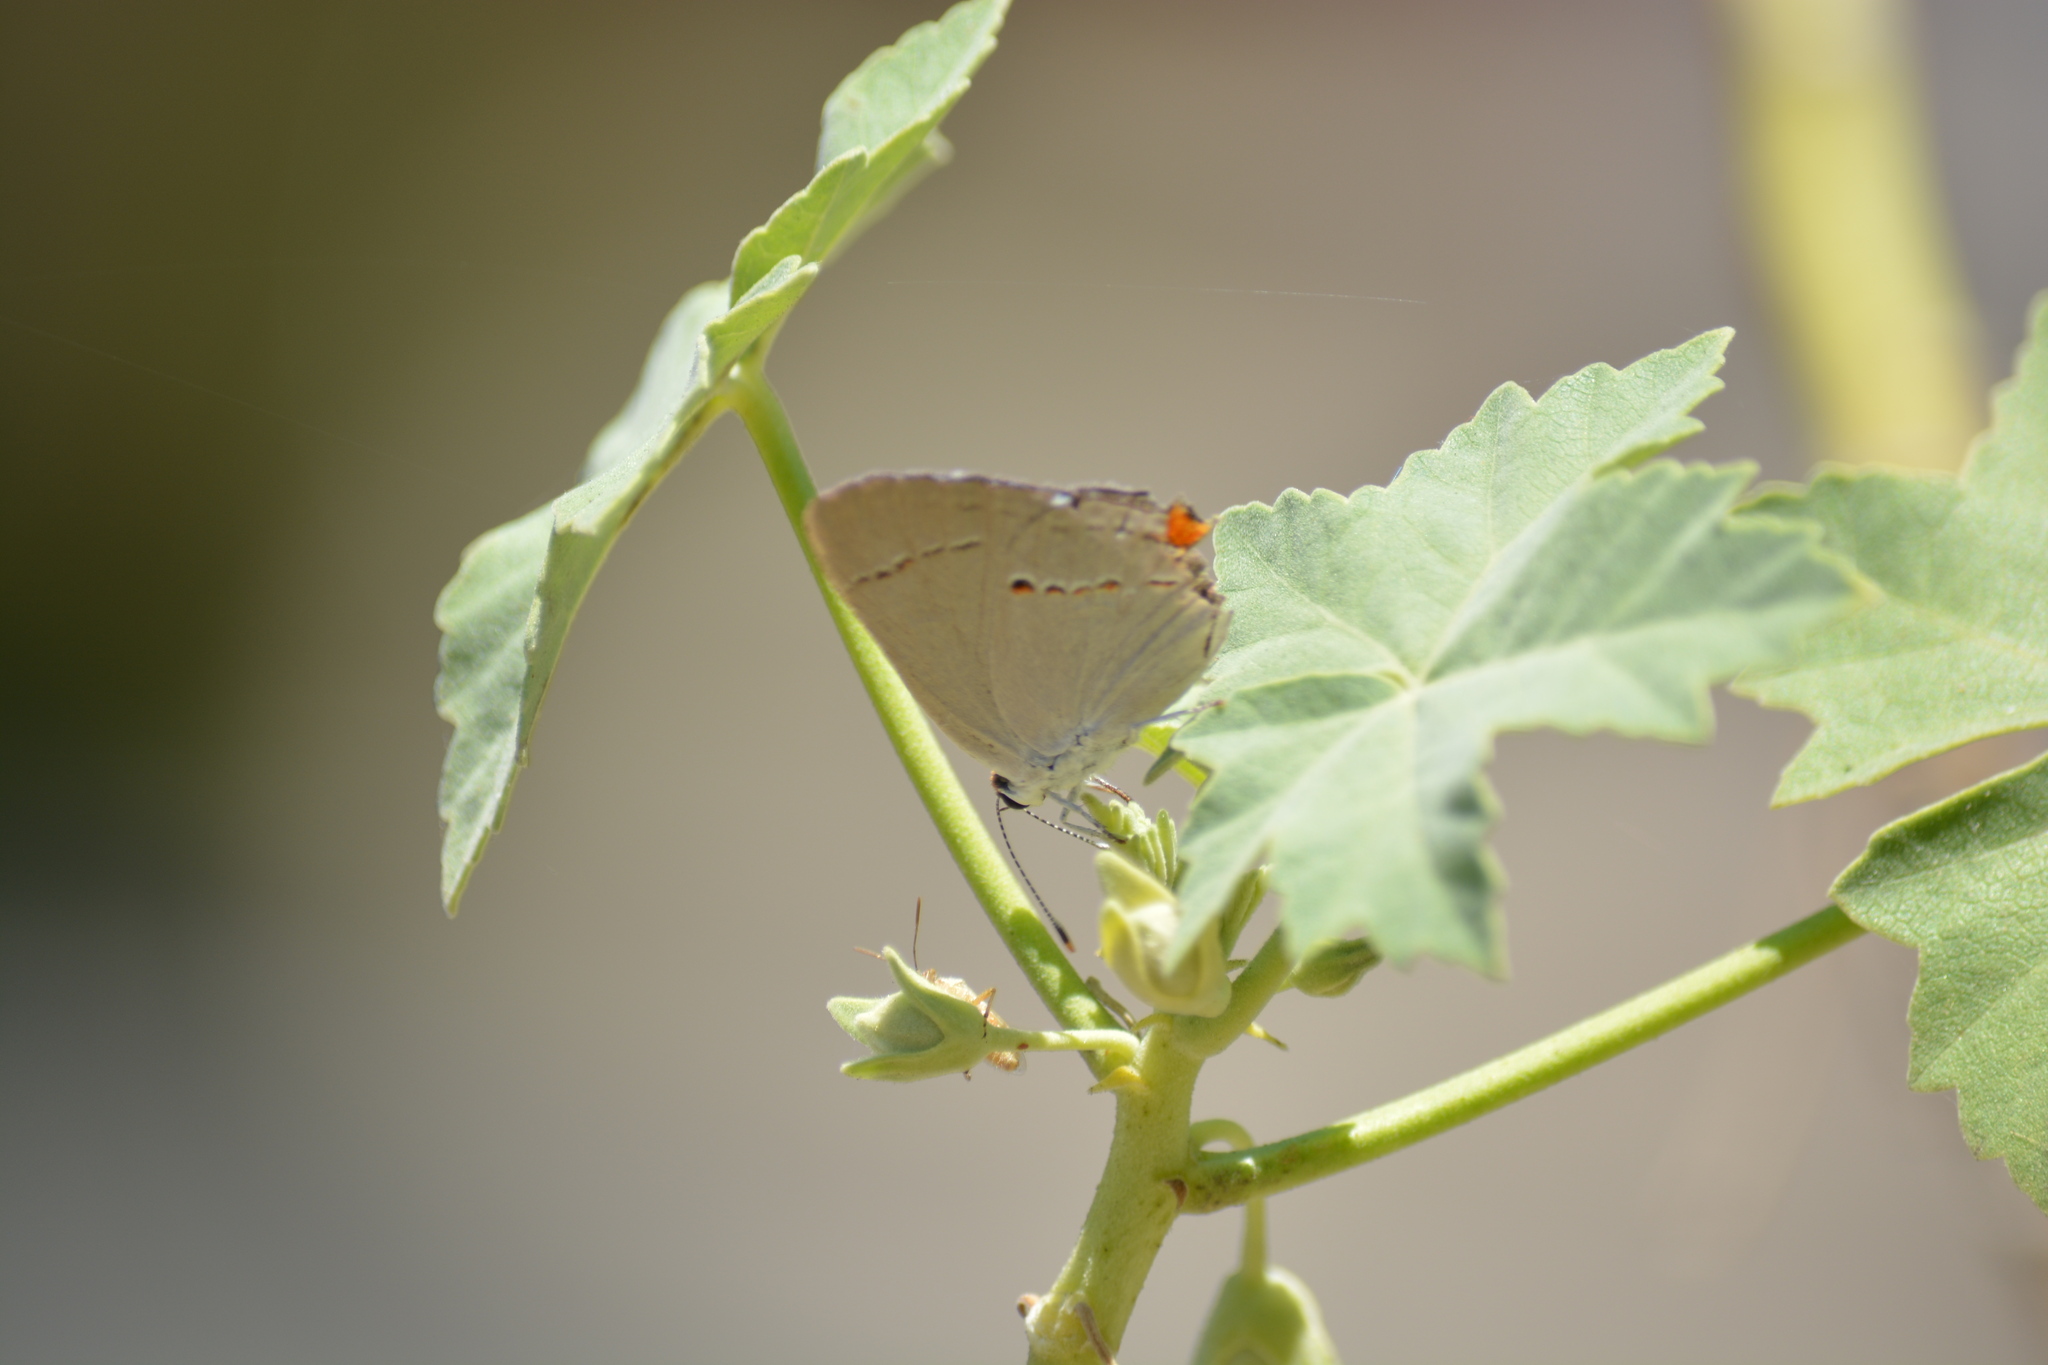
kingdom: Animalia
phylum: Arthropoda
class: Insecta
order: Lepidoptera
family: Lycaenidae
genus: Strymon
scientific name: Strymon melinus
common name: Gray hairstreak
